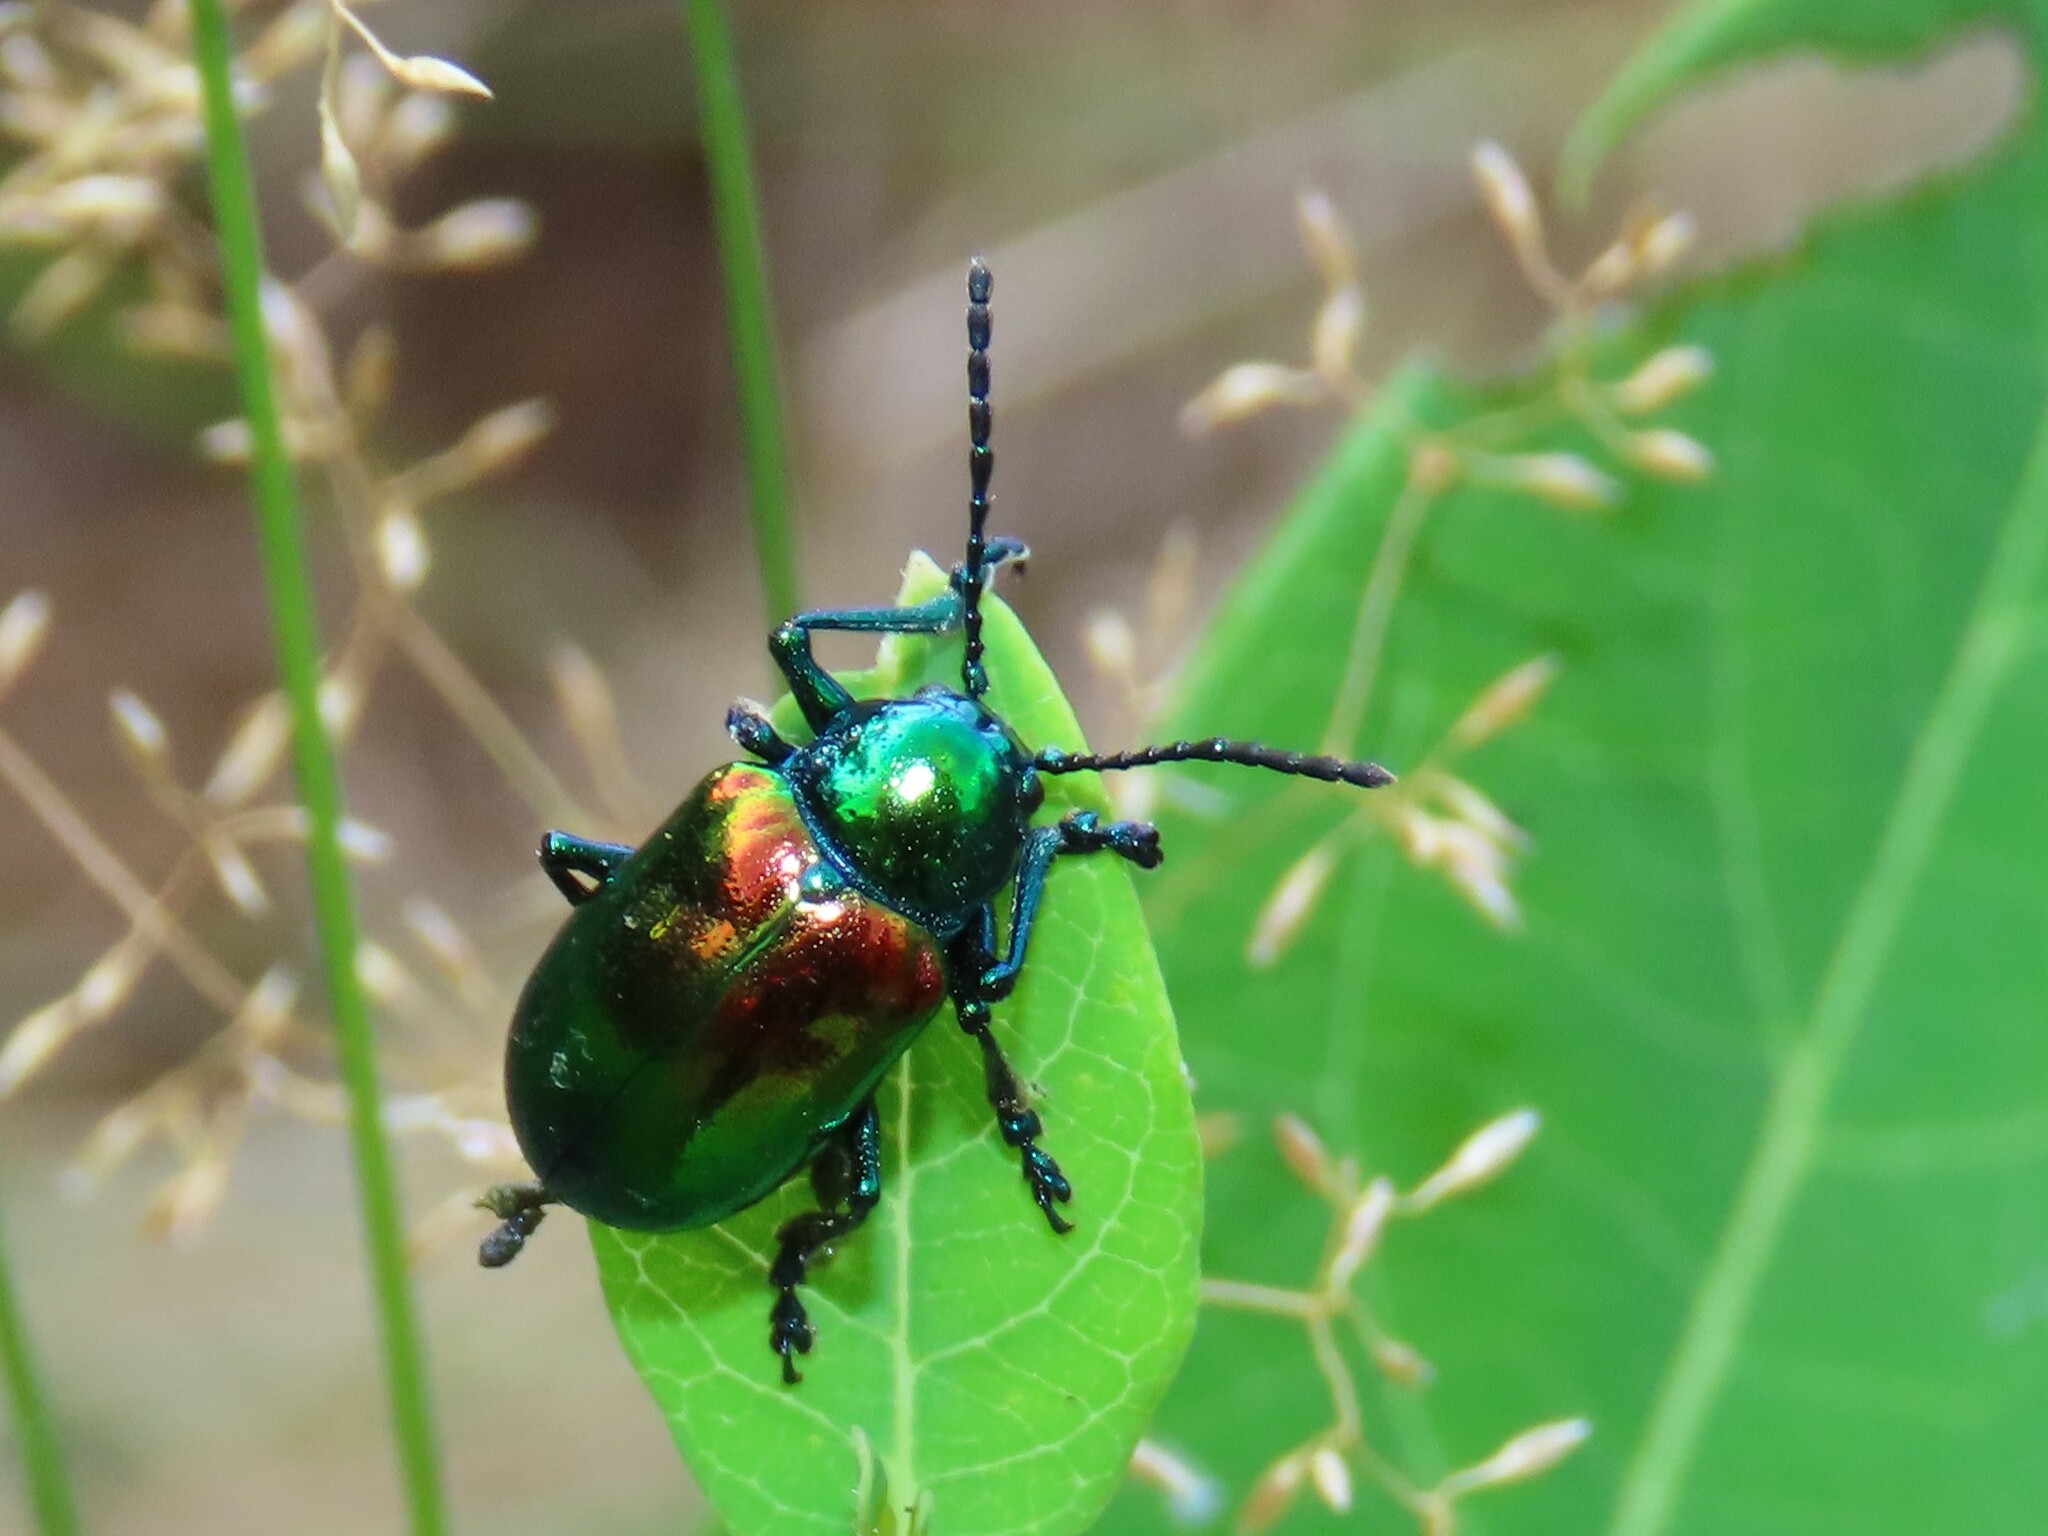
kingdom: Animalia
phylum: Arthropoda
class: Insecta
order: Coleoptera
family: Chrysomelidae
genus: Chrysochus
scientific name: Chrysochus auratus
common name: Dogbane leaf beetle
